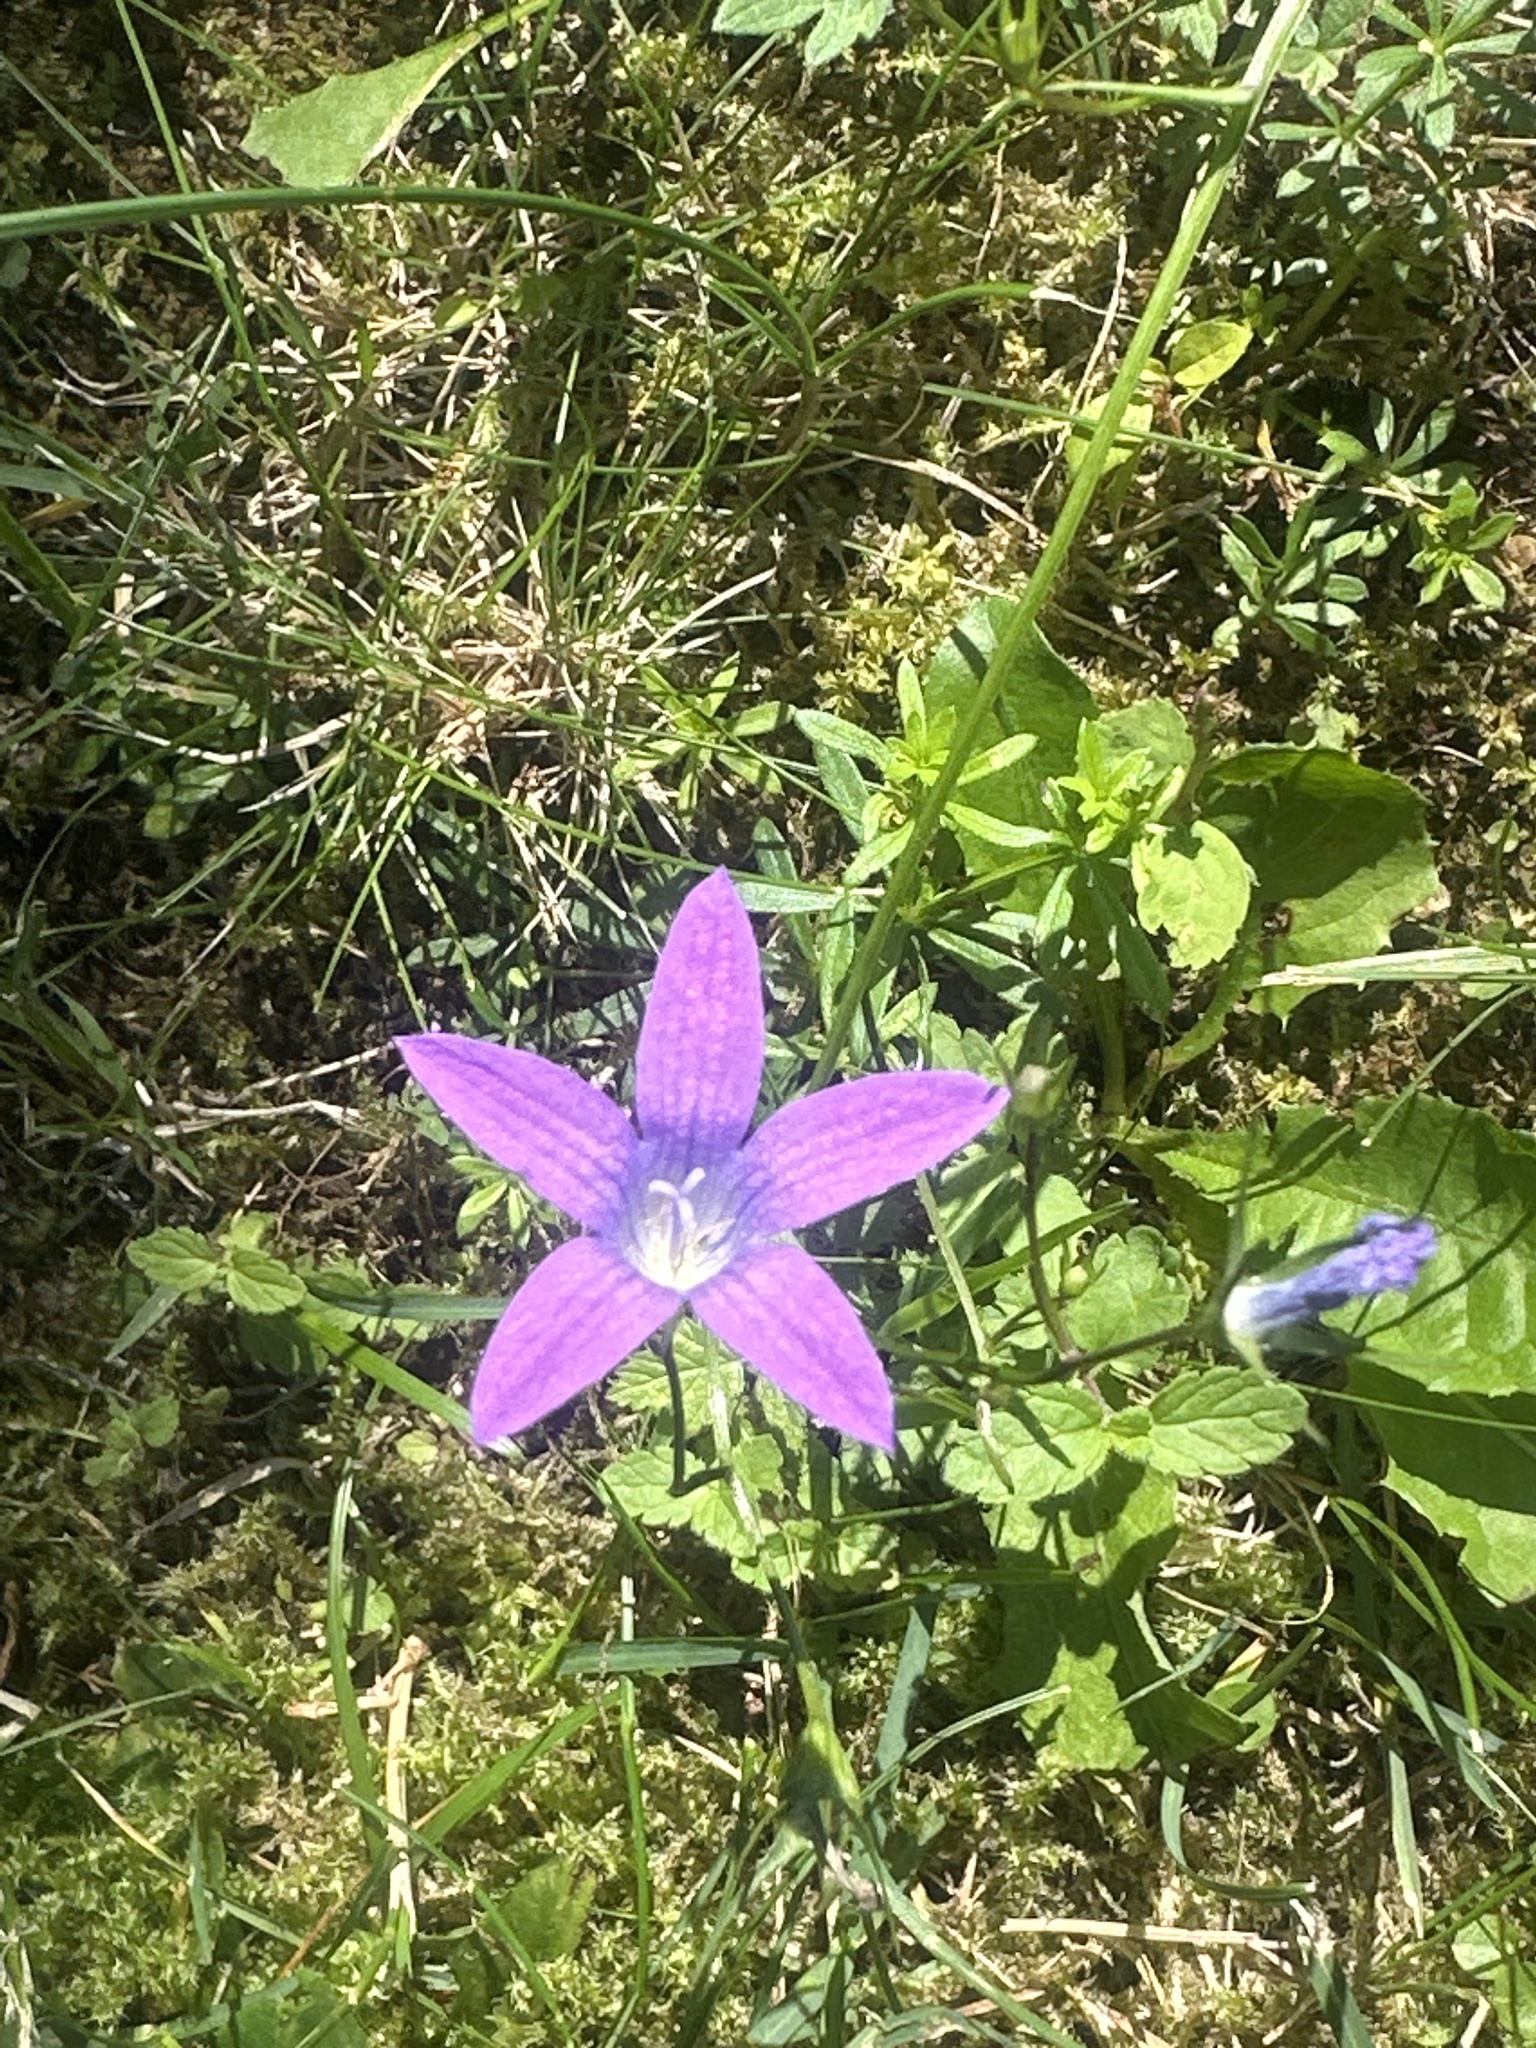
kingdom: Plantae
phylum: Tracheophyta
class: Magnoliopsida
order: Asterales
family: Campanulaceae
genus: Campanula
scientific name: Campanula patula
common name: Spreading bellflower
